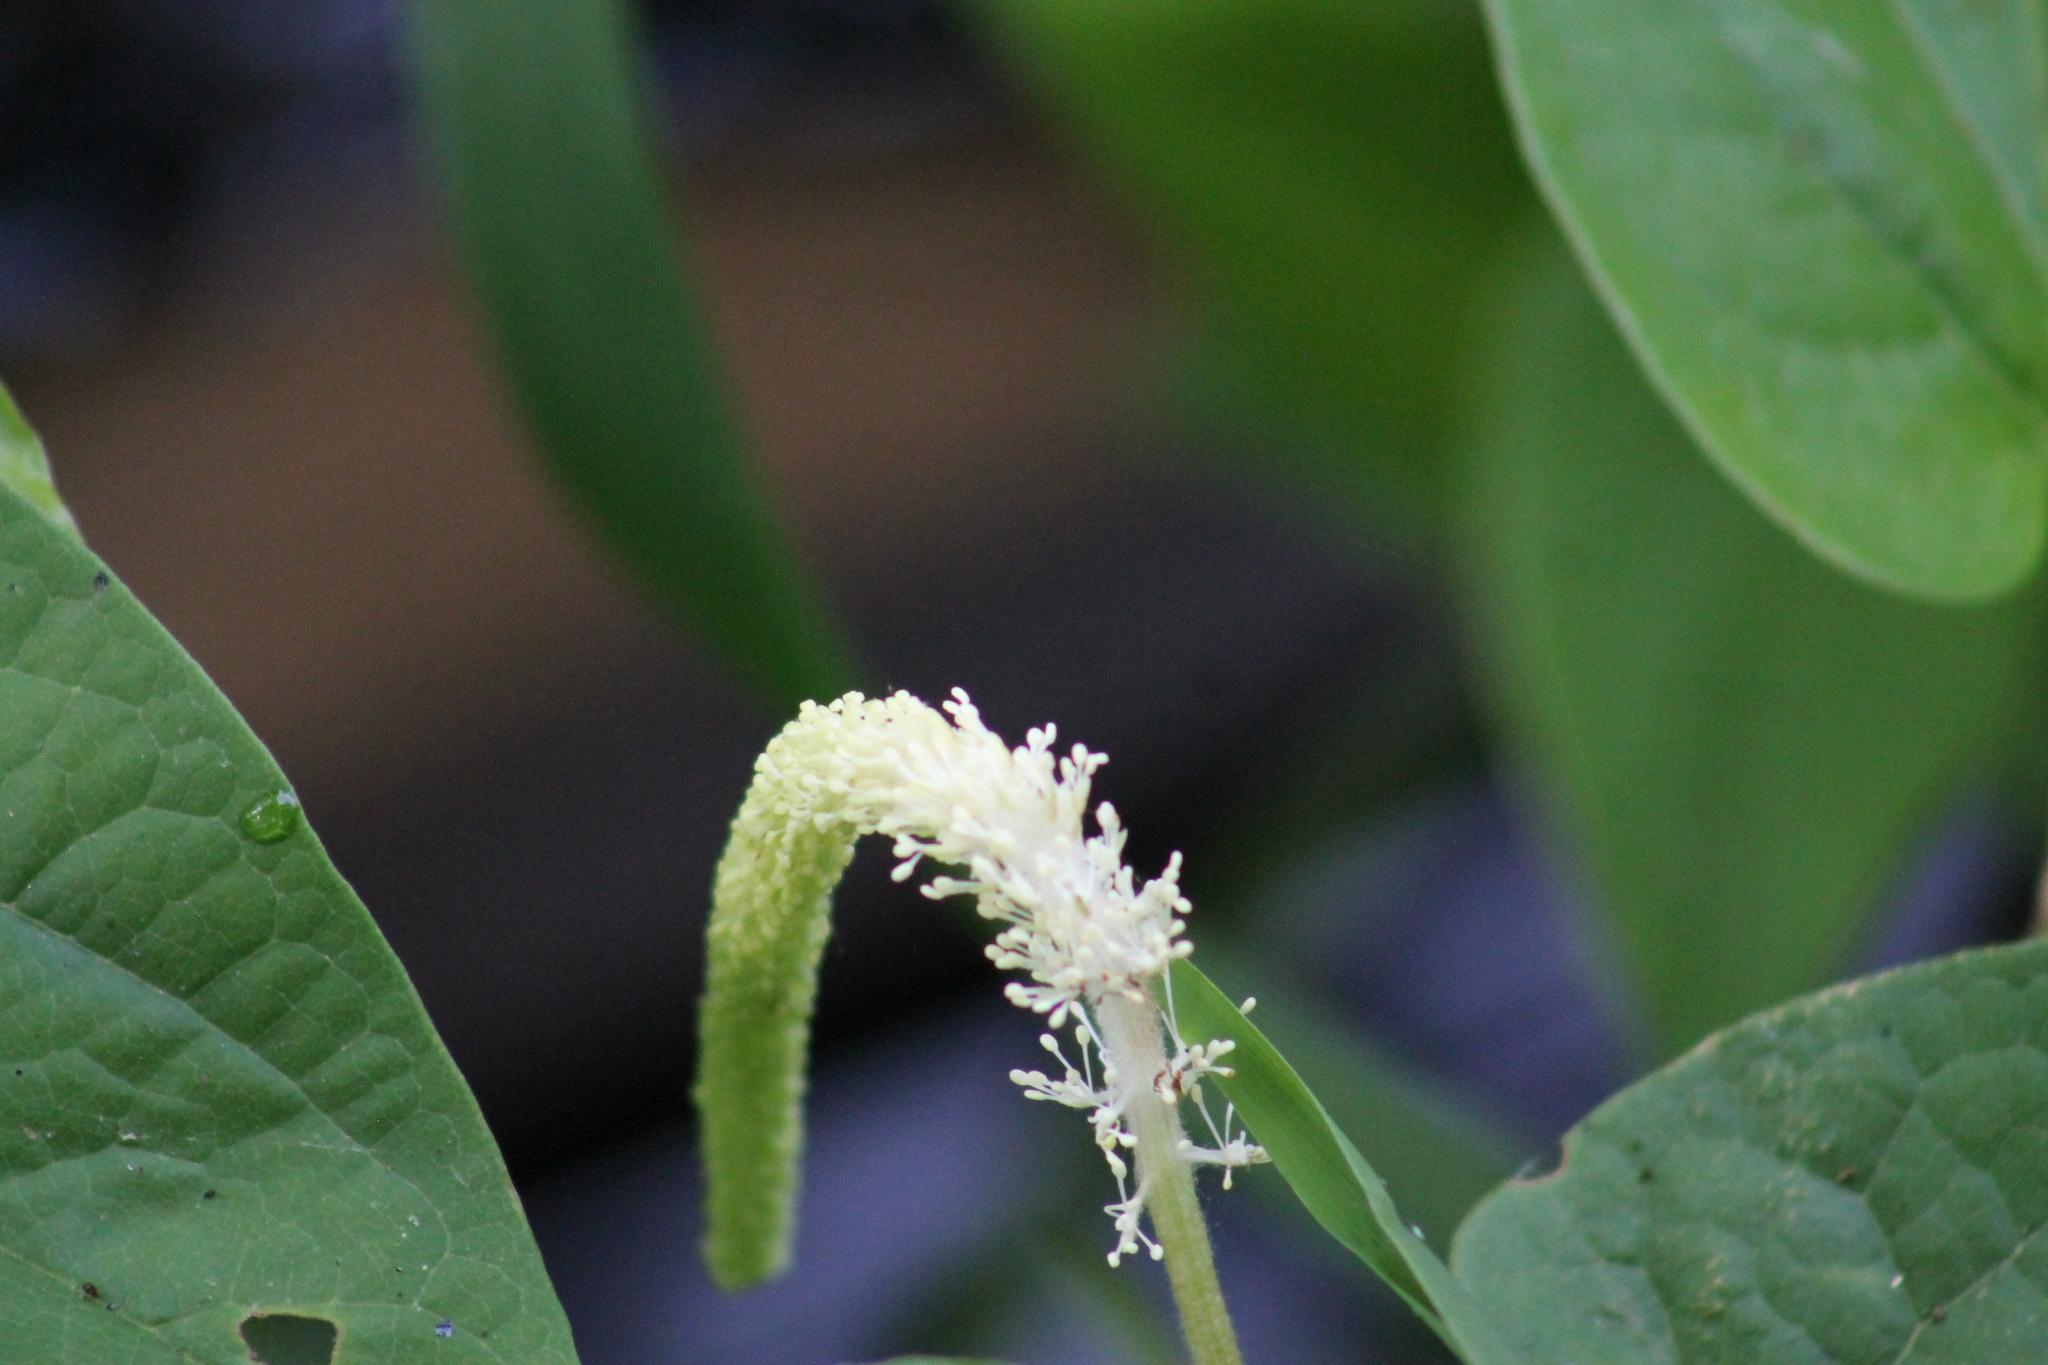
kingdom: Plantae
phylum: Tracheophyta
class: Magnoliopsida
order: Piperales
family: Saururaceae
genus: Saururus
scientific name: Saururus cernuus
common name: Lizard's-tail
